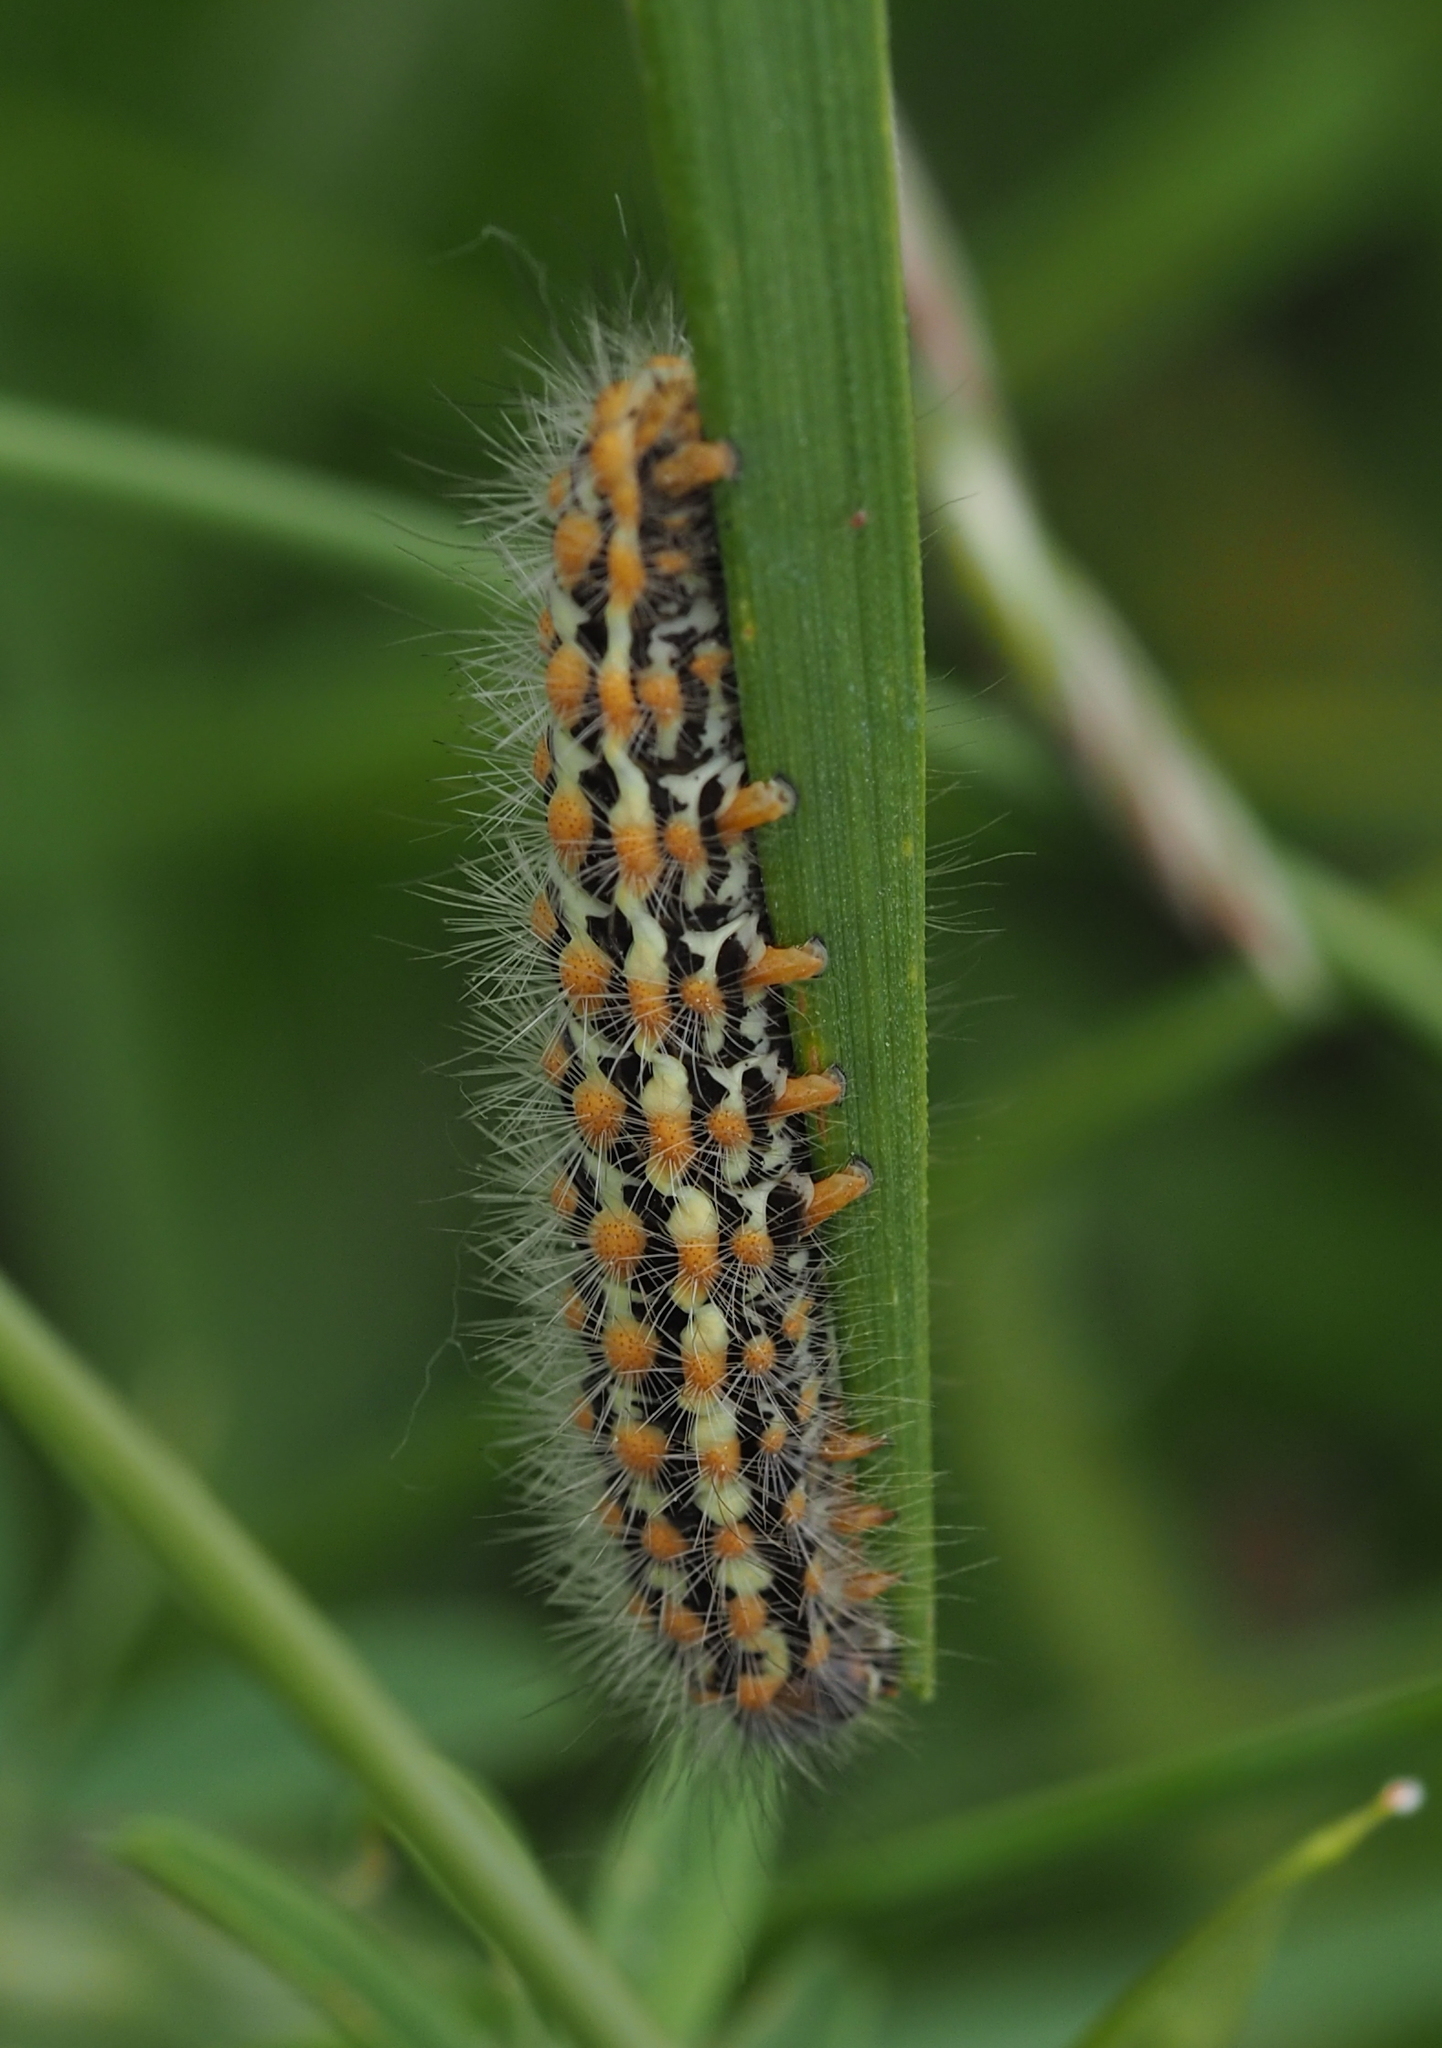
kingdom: Animalia
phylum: Arthropoda
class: Insecta
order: Lepidoptera
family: Erebidae
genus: Penthophera
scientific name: Penthophera morio
